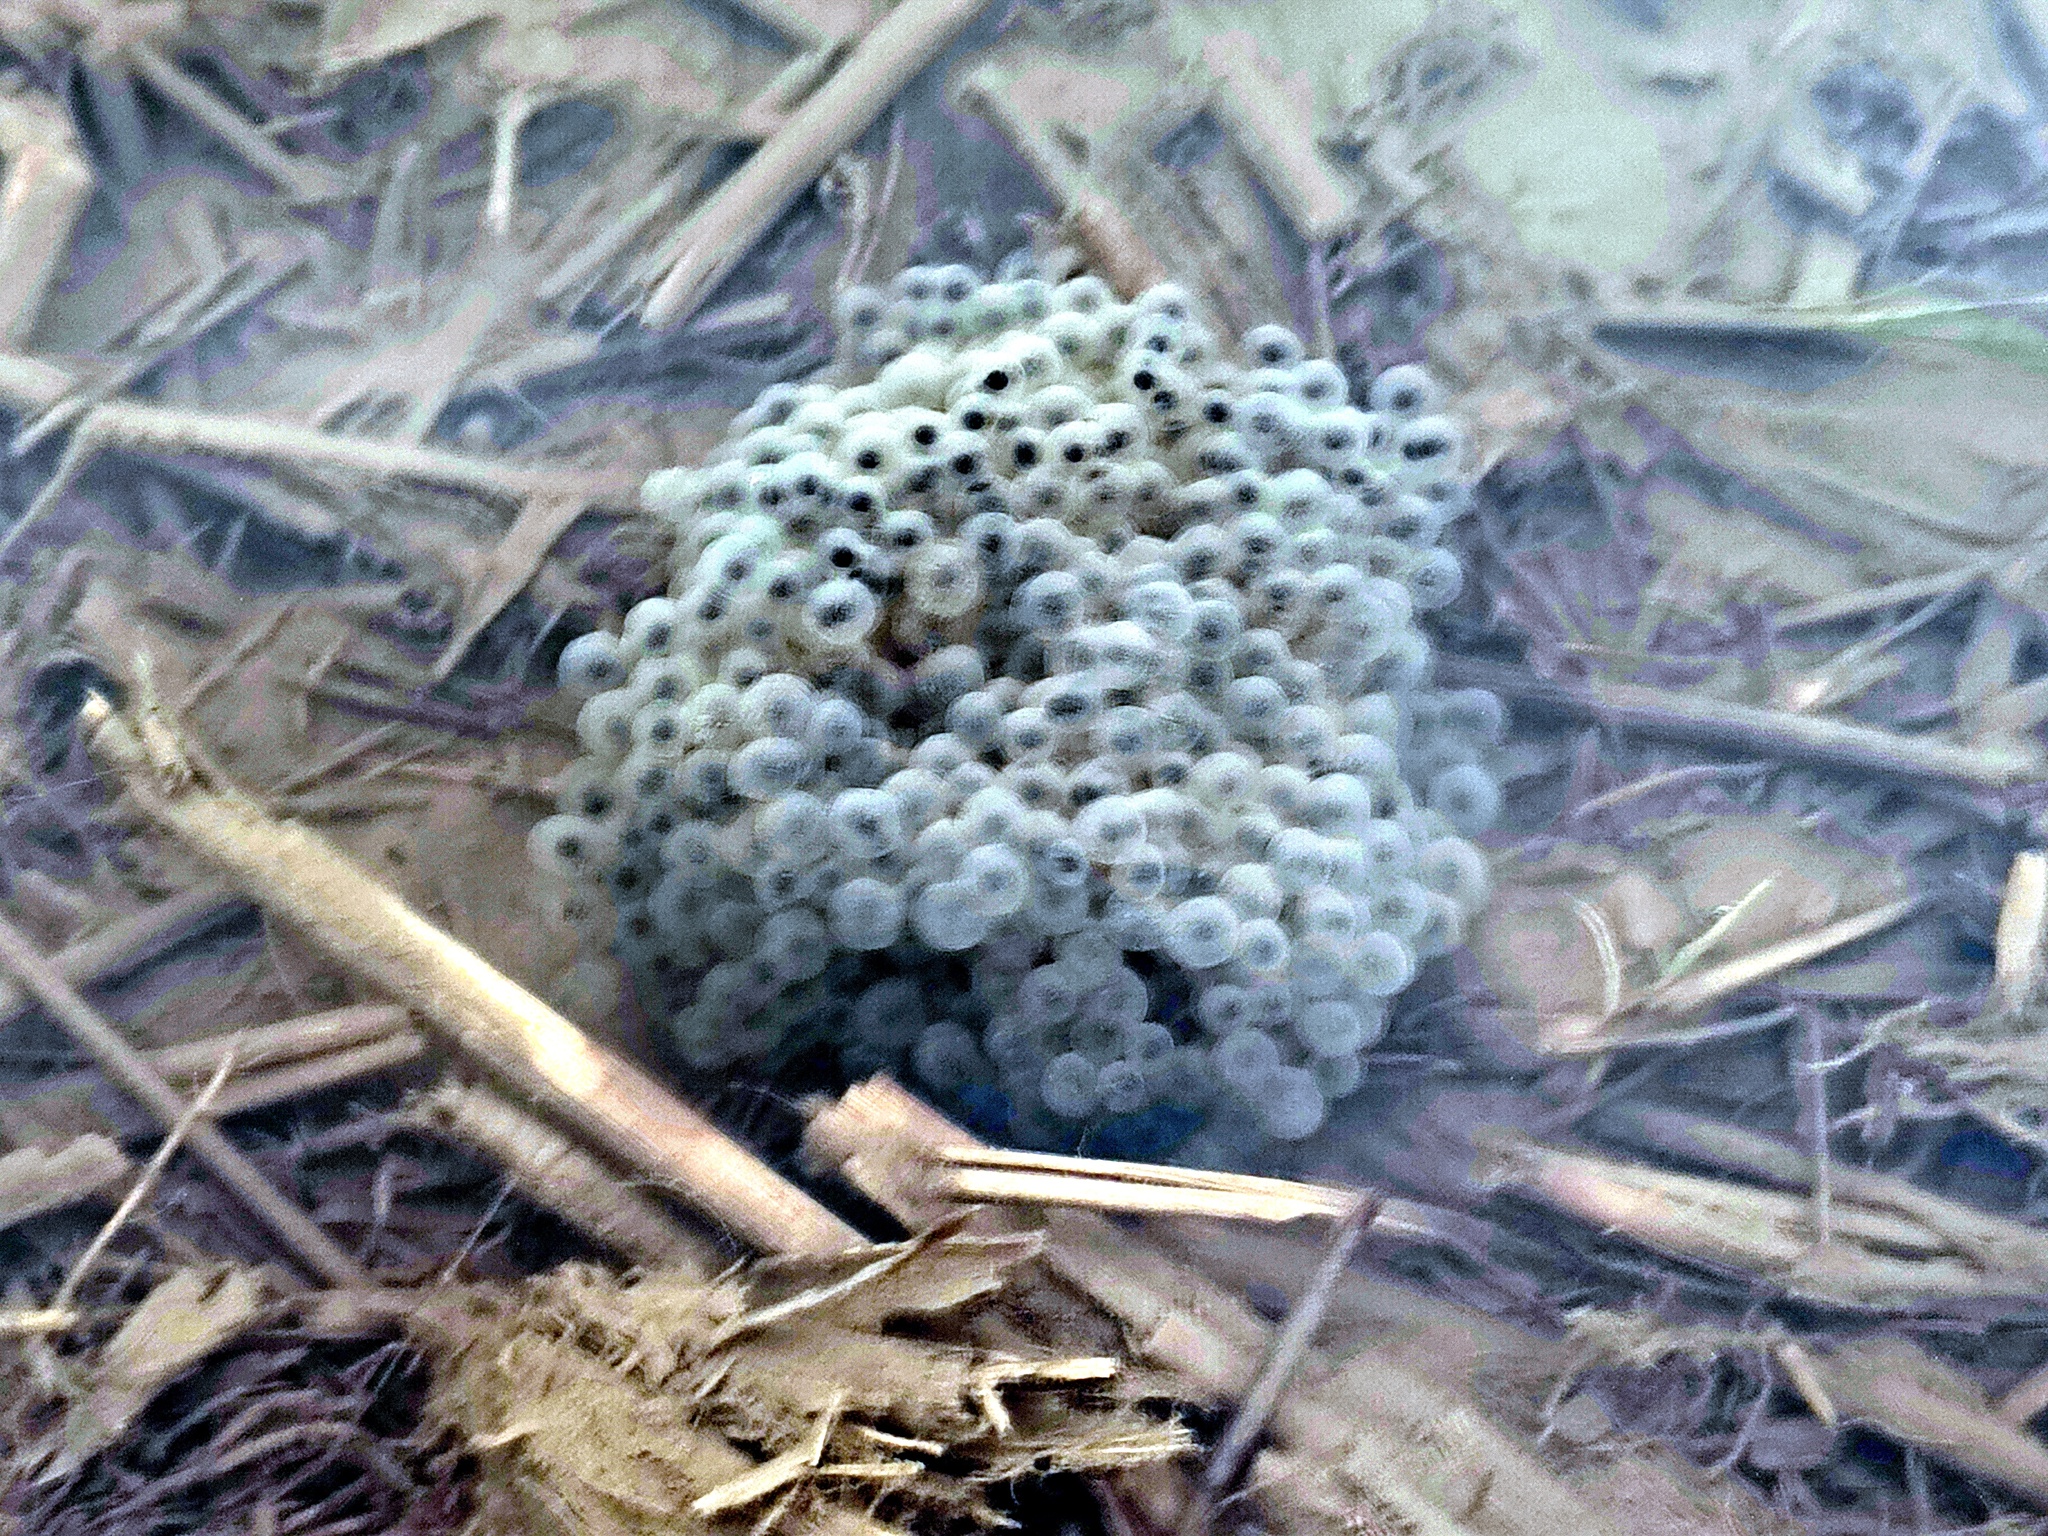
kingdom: Animalia
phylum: Chordata
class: Amphibia
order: Anura
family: Ranidae
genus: Rana
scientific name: Rana longicrus
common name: Long-legged brown frog
